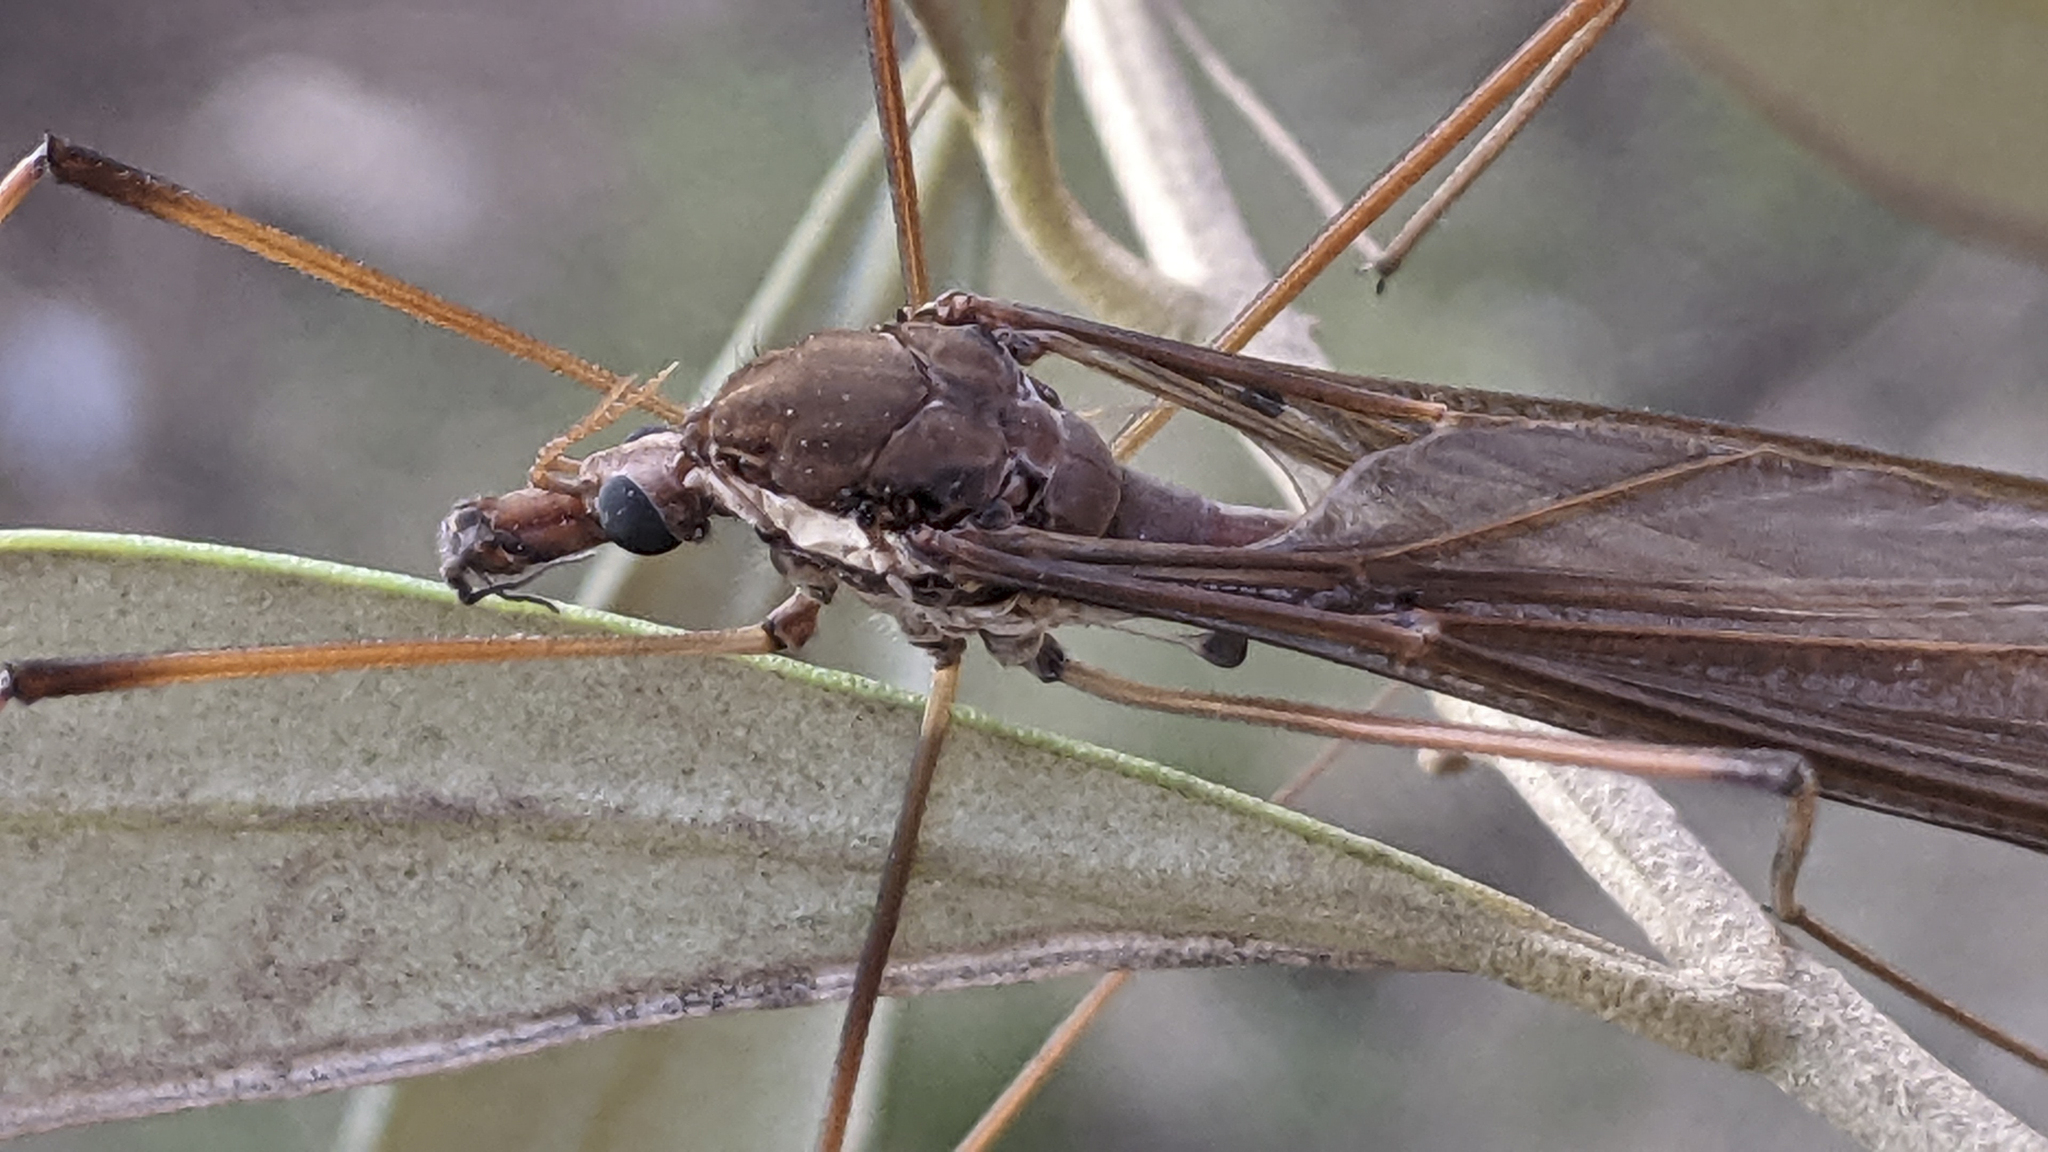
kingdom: Animalia
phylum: Arthropoda
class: Insecta
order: Diptera
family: Tipulidae
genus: Holorusia
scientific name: Holorusia hespera
